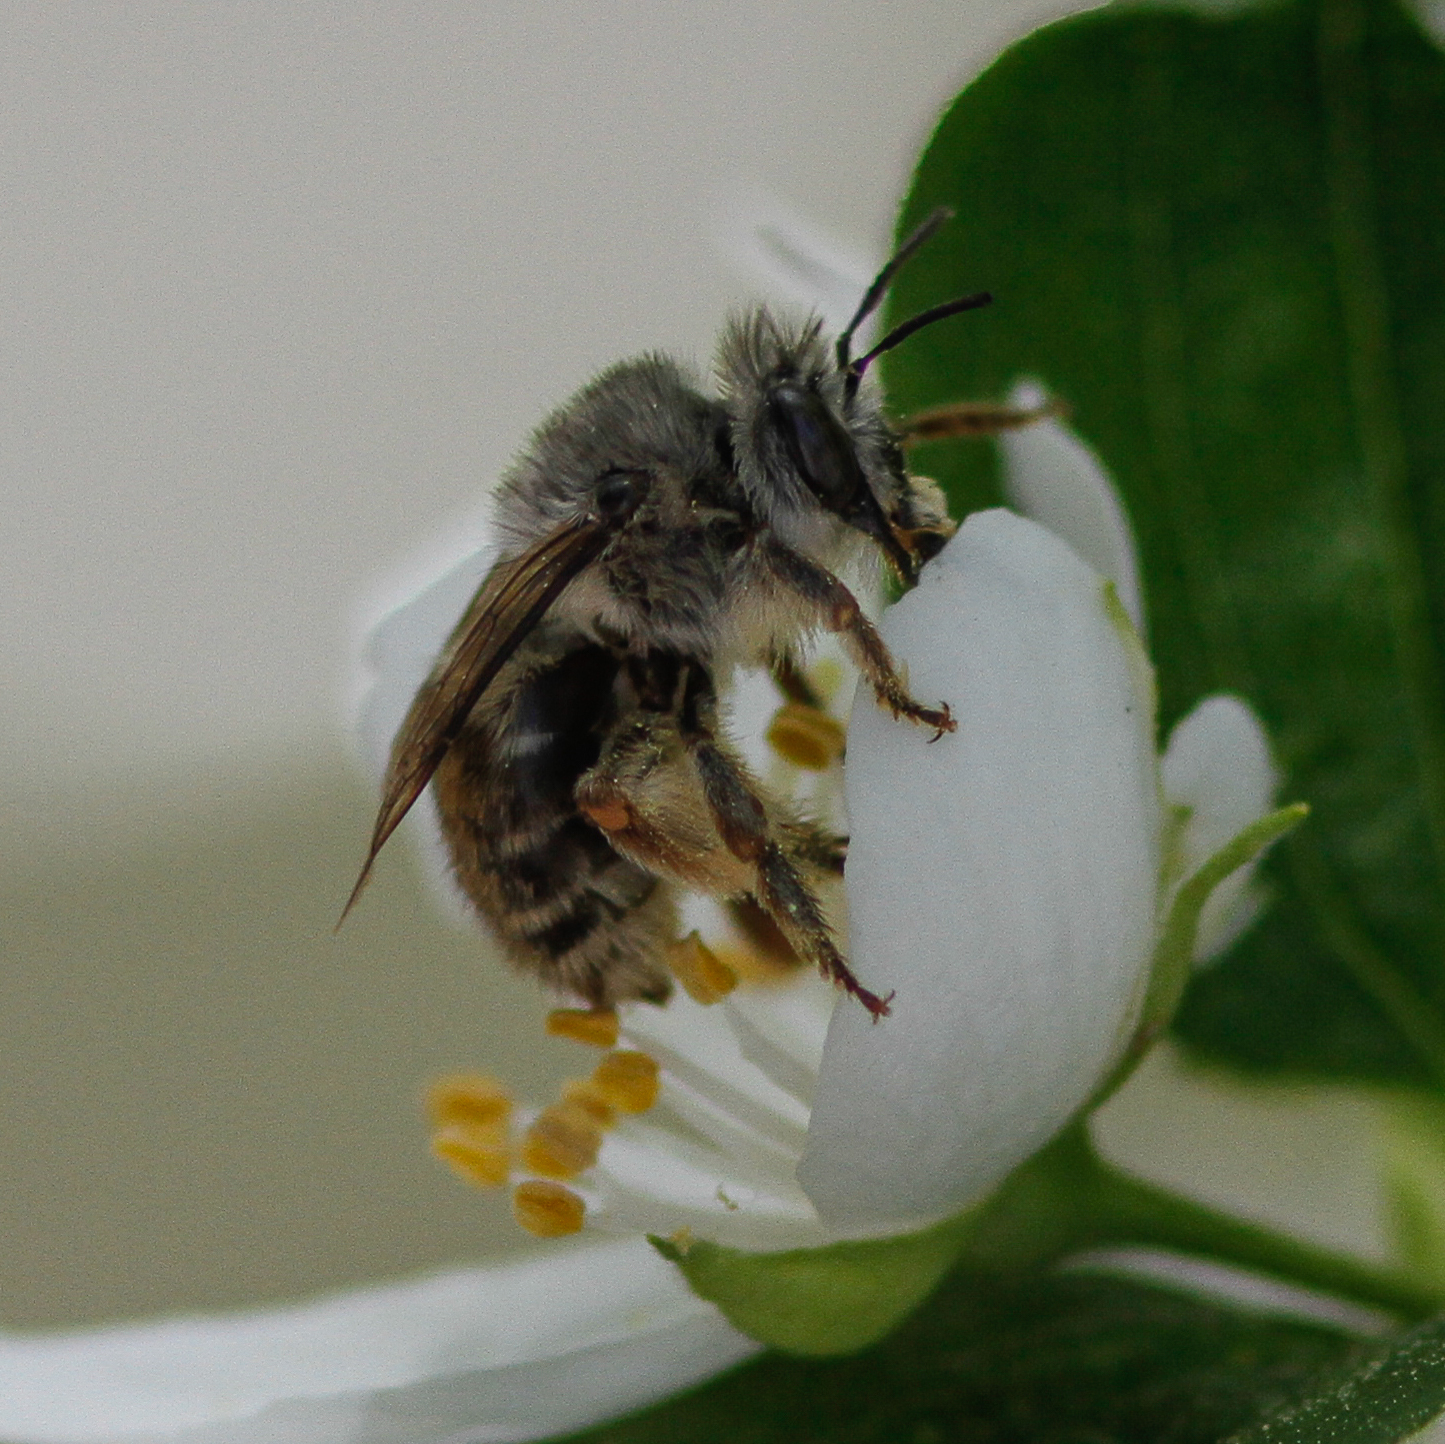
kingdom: Animalia
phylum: Arthropoda
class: Insecta
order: Hymenoptera
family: Apidae
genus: Habropoda
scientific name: Habropoda depressa
